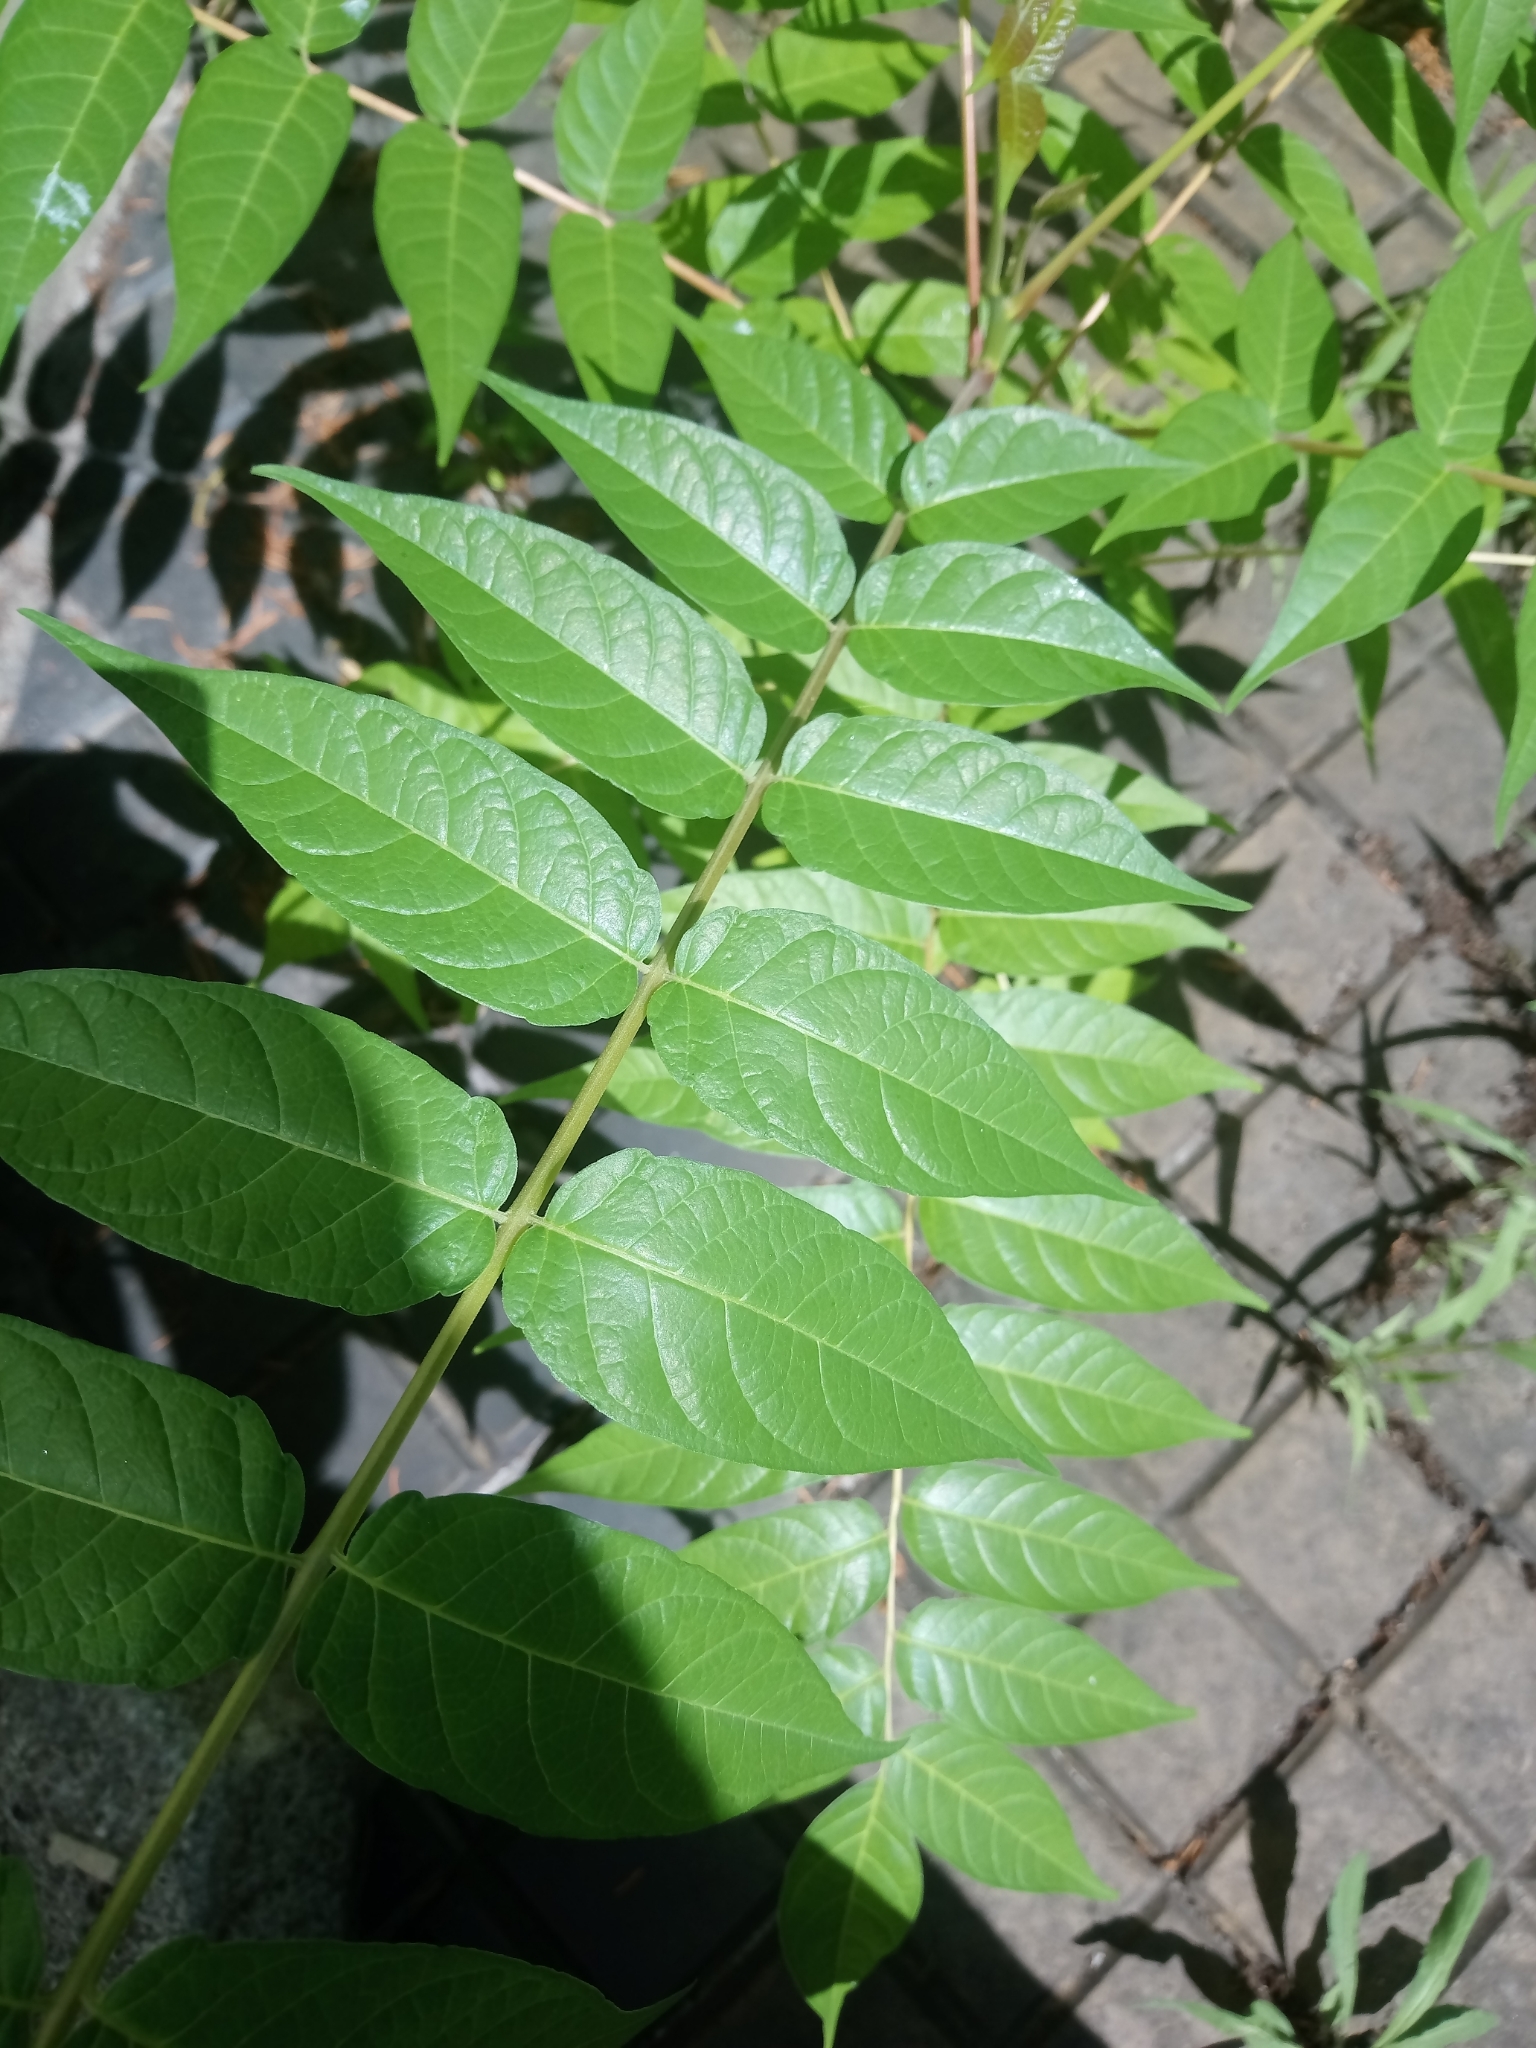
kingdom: Plantae
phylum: Tracheophyta
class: Magnoliopsida
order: Sapindales
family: Simaroubaceae
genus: Ailanthus
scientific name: Ailanthus altissima
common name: Tree-of-heaven
